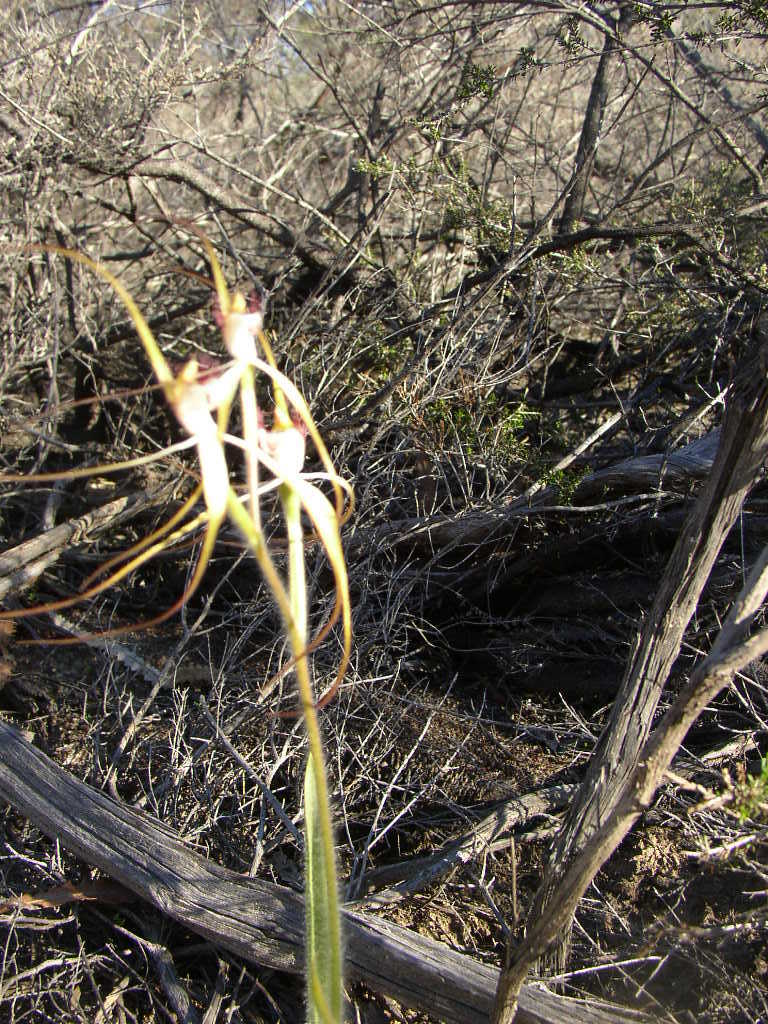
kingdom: Plantae
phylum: Tracheophyta
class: Liliopsida
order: Asparagales
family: Orchidaceae
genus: Caladenia
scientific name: Caladenia longicauda
